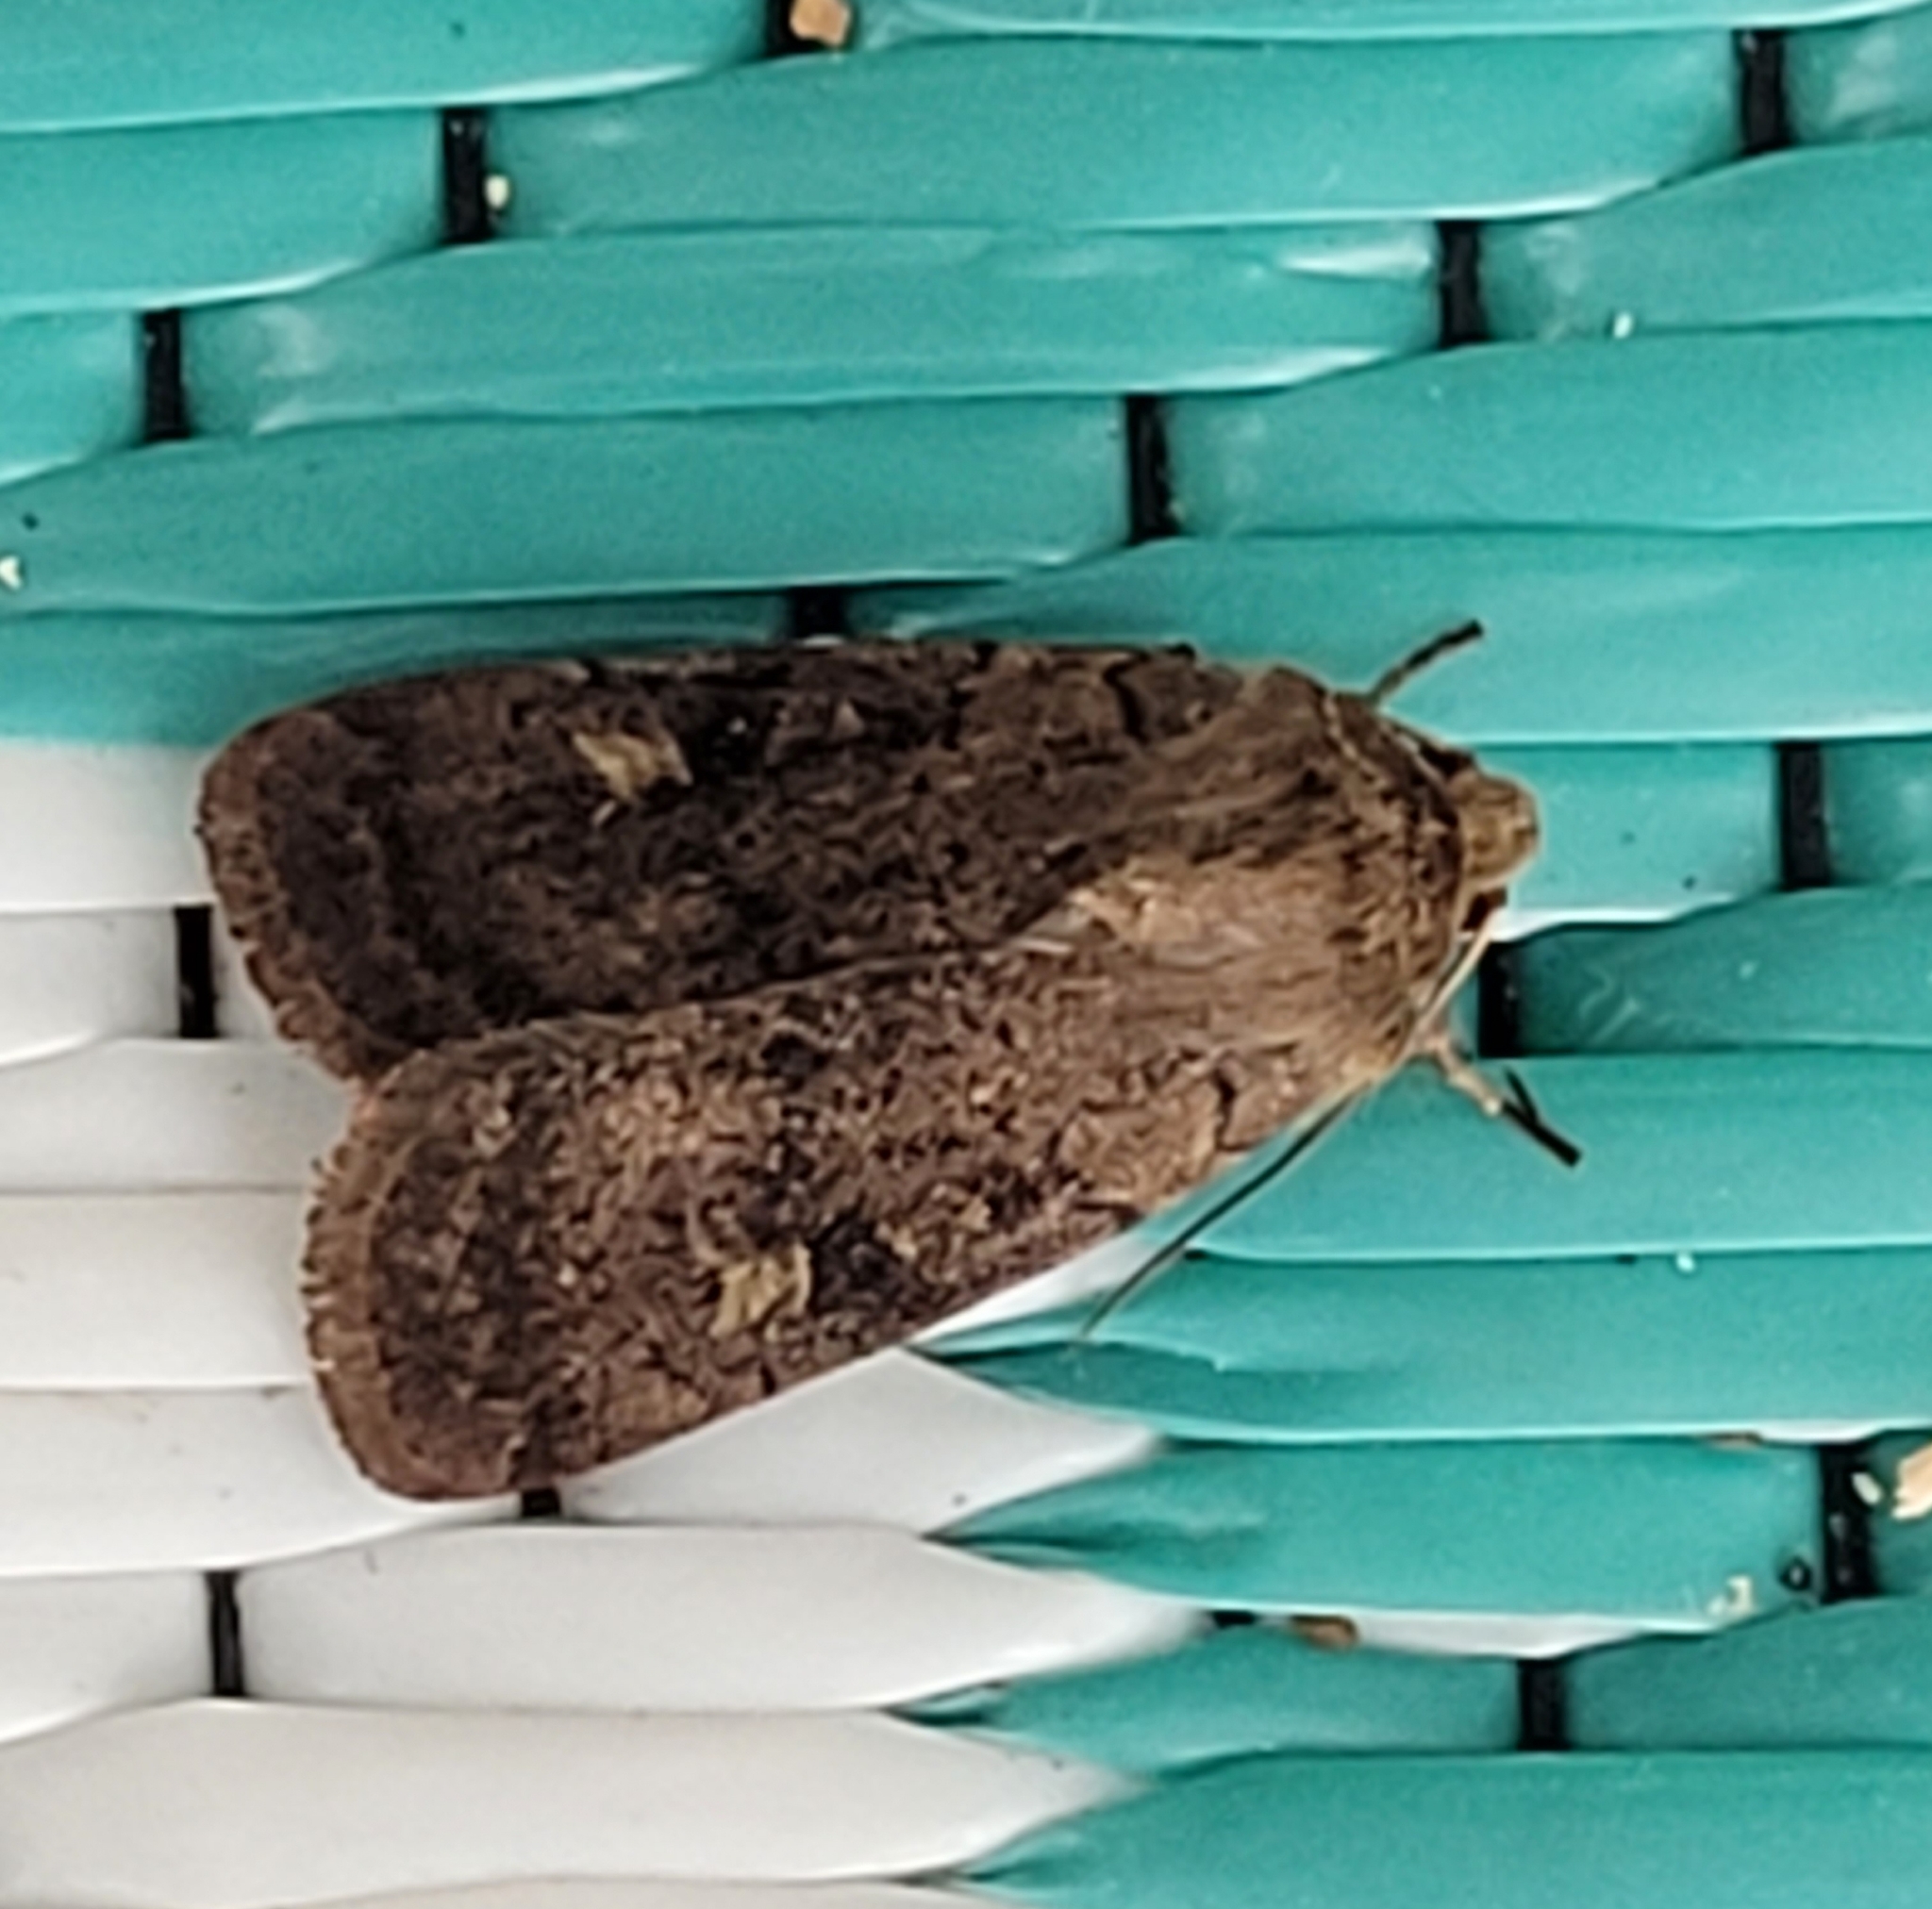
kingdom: Animalia
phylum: Arthropoda
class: Insecta
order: Lepidoptera
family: Noctuidae
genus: Xestia
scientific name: Xestia xanthographa
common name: Square-spot rustic
